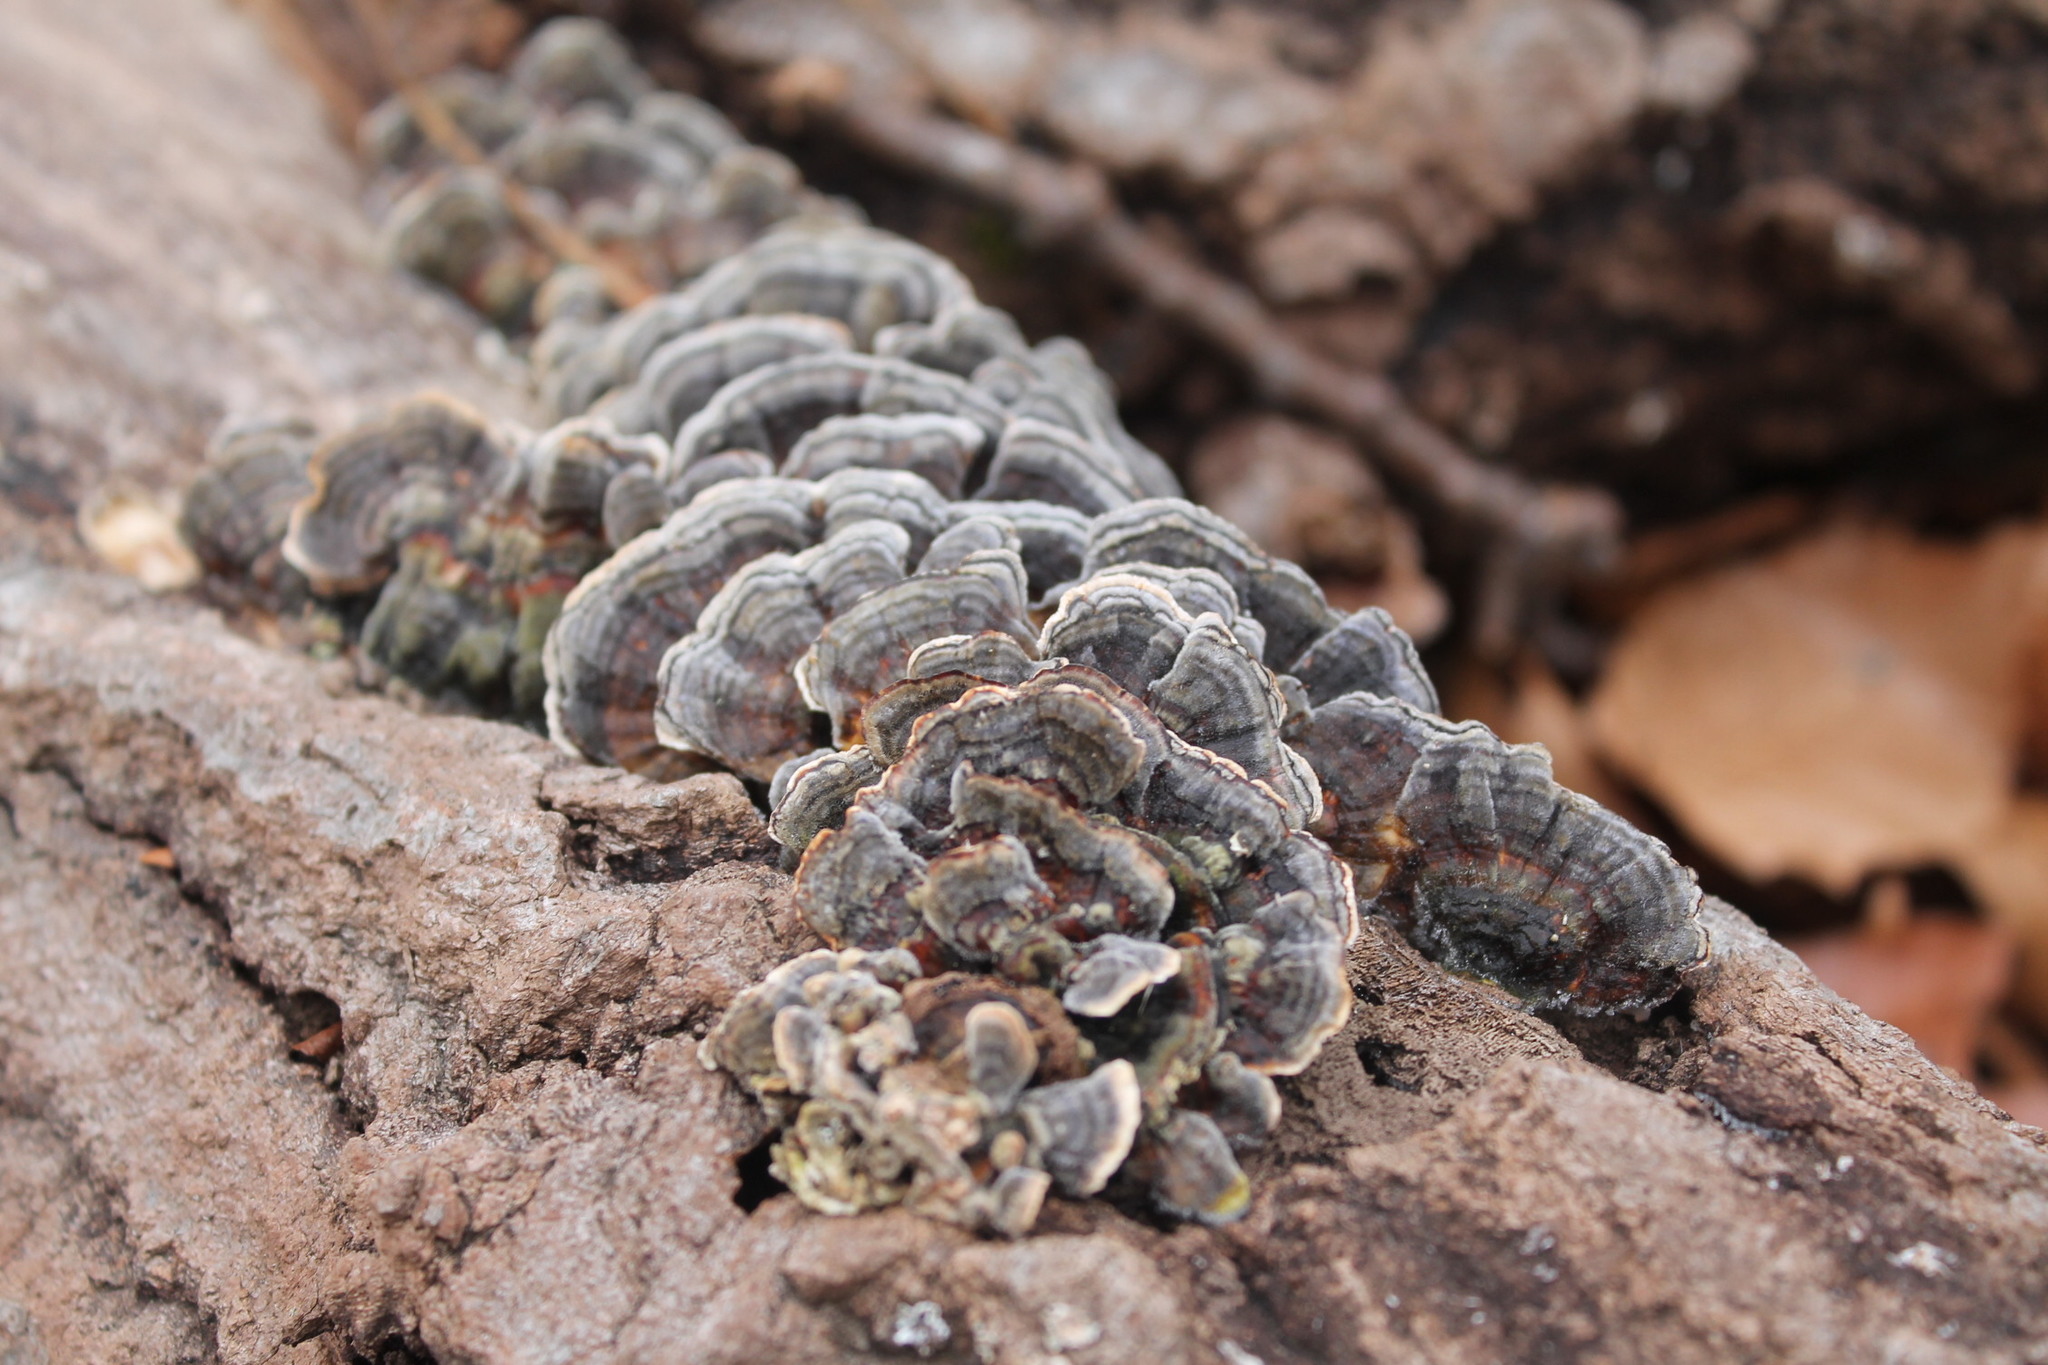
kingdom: Fungi
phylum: Basidiomycota
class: Agaricomycetes
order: Polyporales
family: Polyporaceae
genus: Trametes
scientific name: Trametes versicolor
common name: Turkeytail
